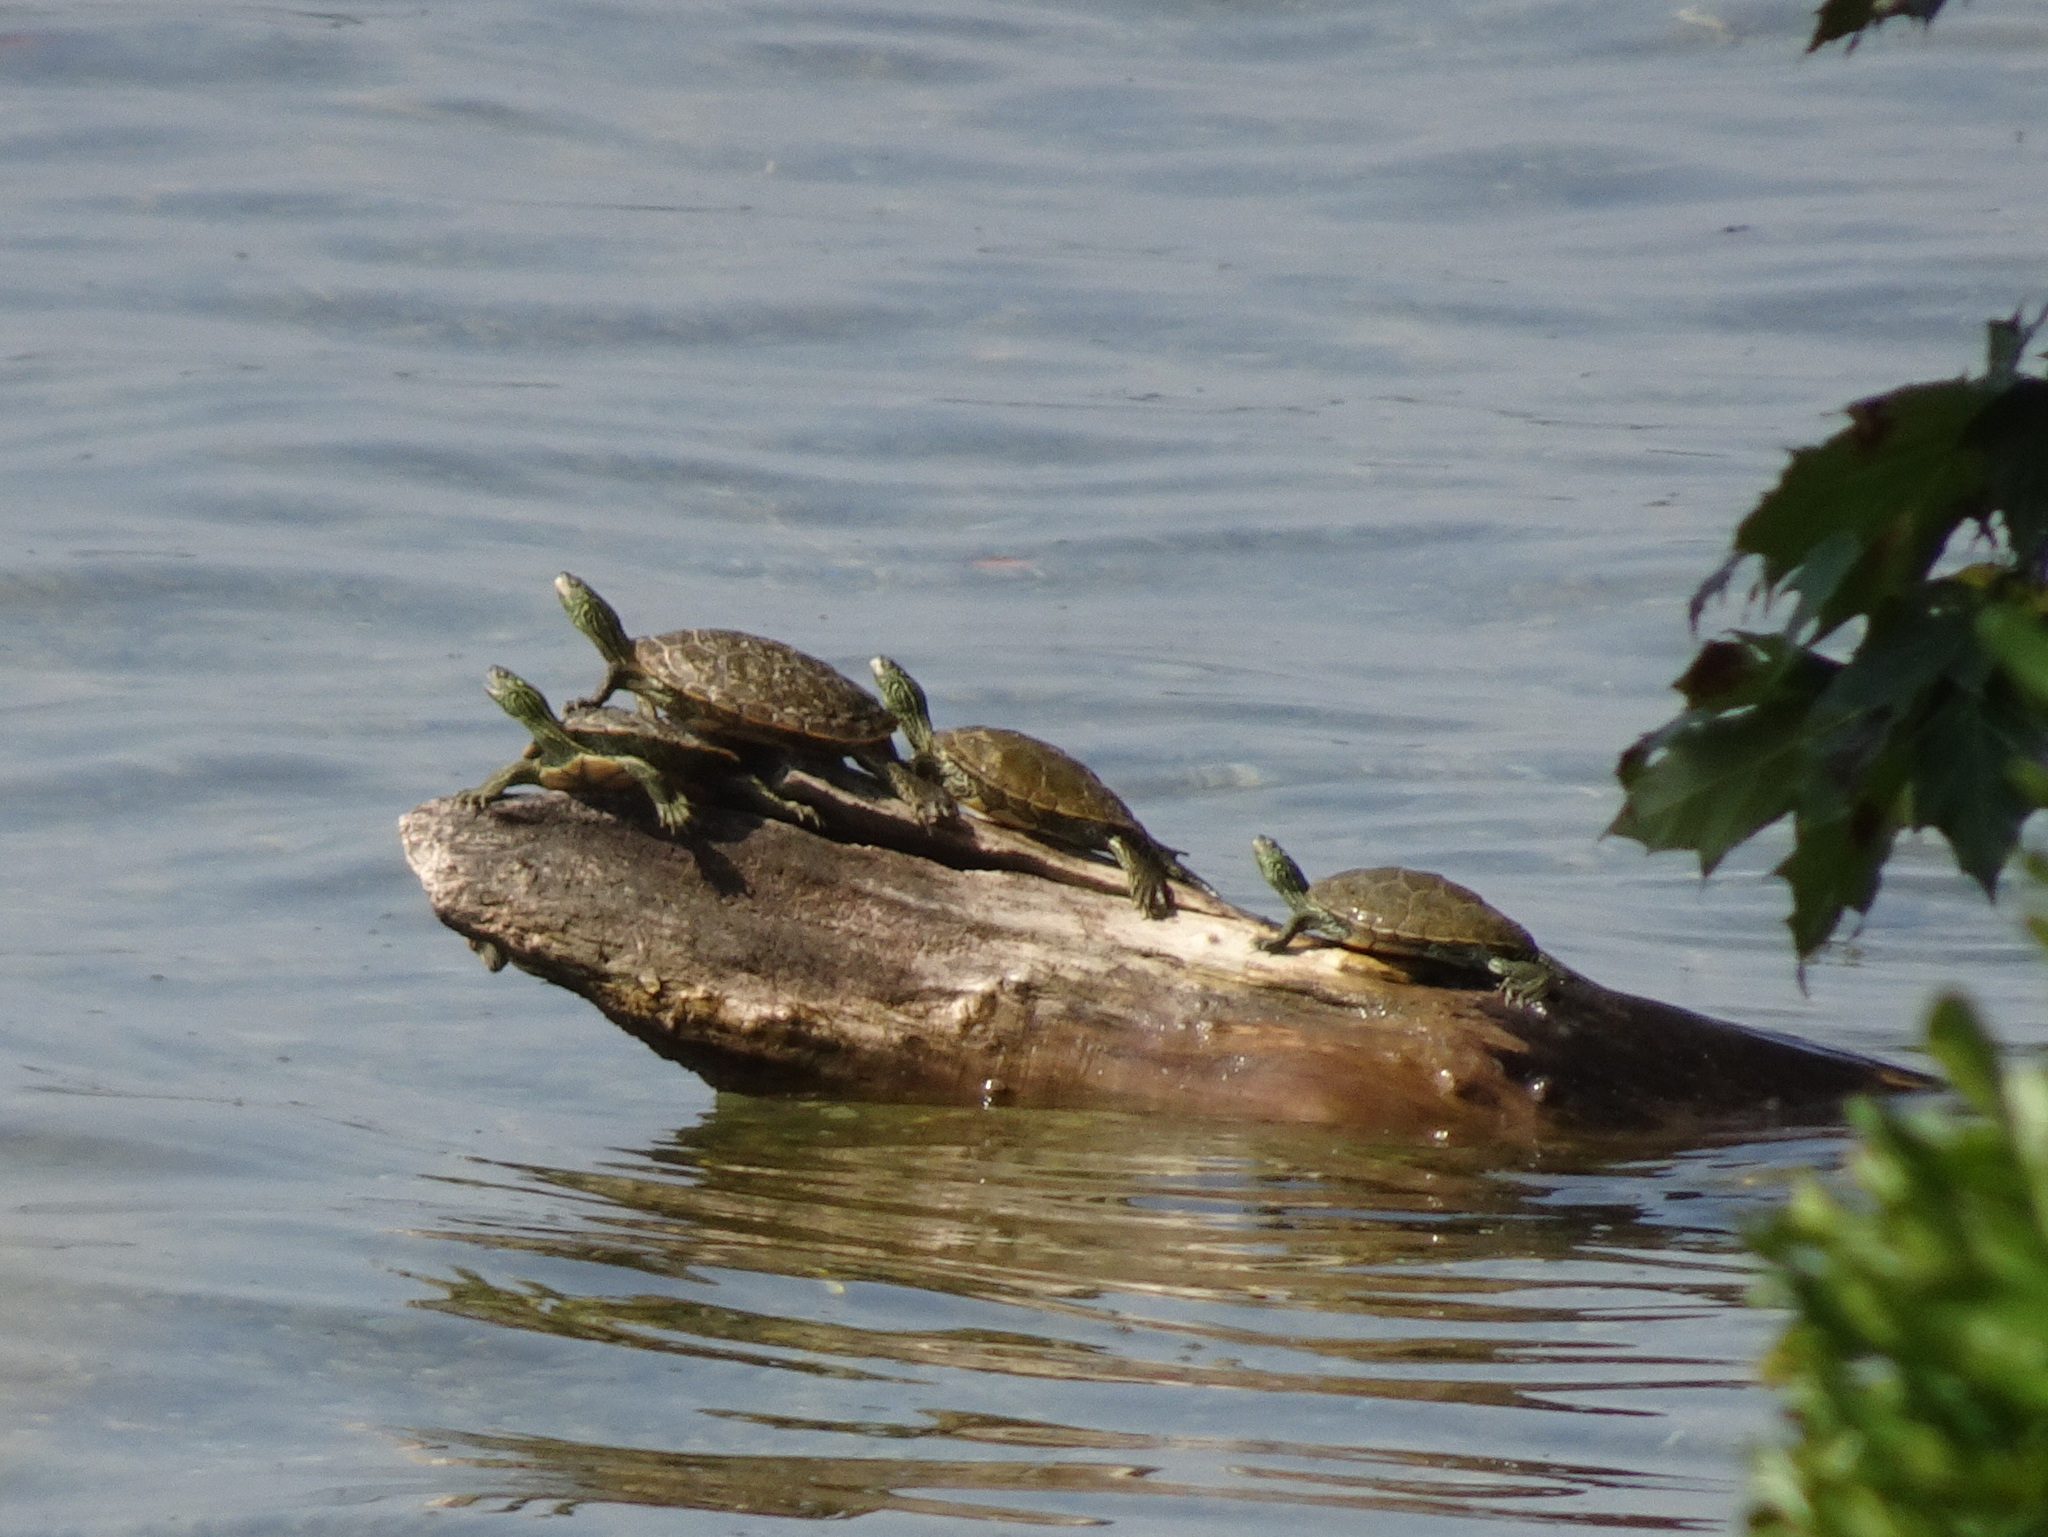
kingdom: Animalia
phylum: Chordata
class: Testudines
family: Emydidae
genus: Graptemys
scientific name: Graptemys geographica
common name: Common map turtle
